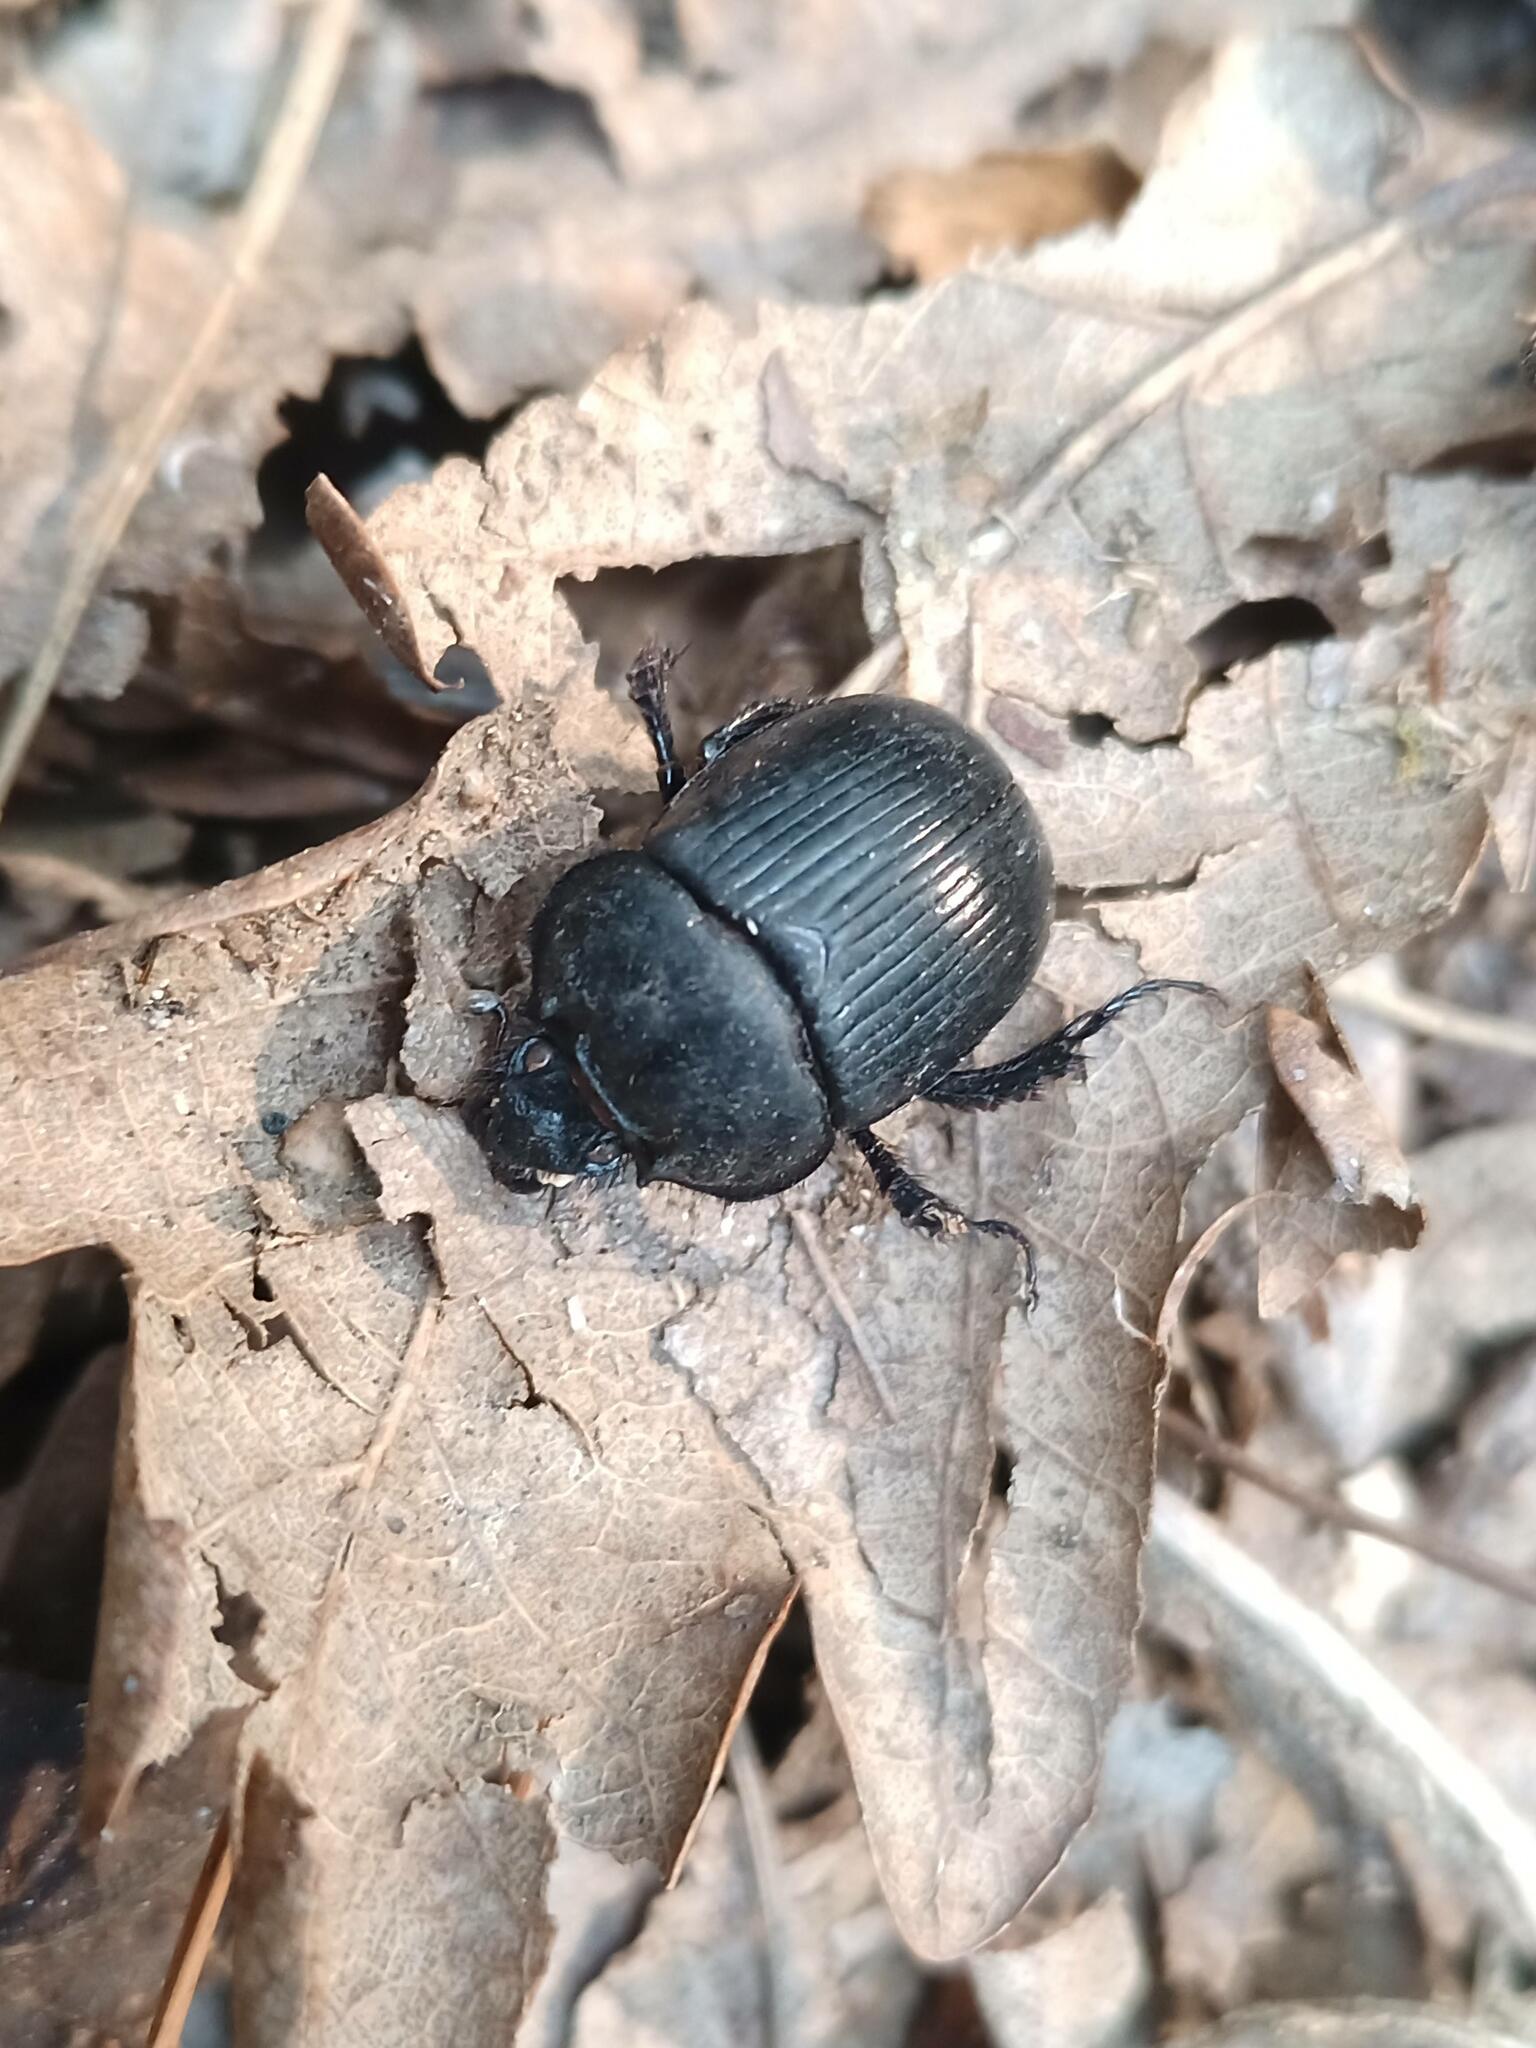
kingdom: Animalia
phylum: Arthropoda
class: Insecta
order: Coleoptera
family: Geotrupidae
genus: Typhaeus
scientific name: Typhaeus typhoeus
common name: Minotaur beetle
